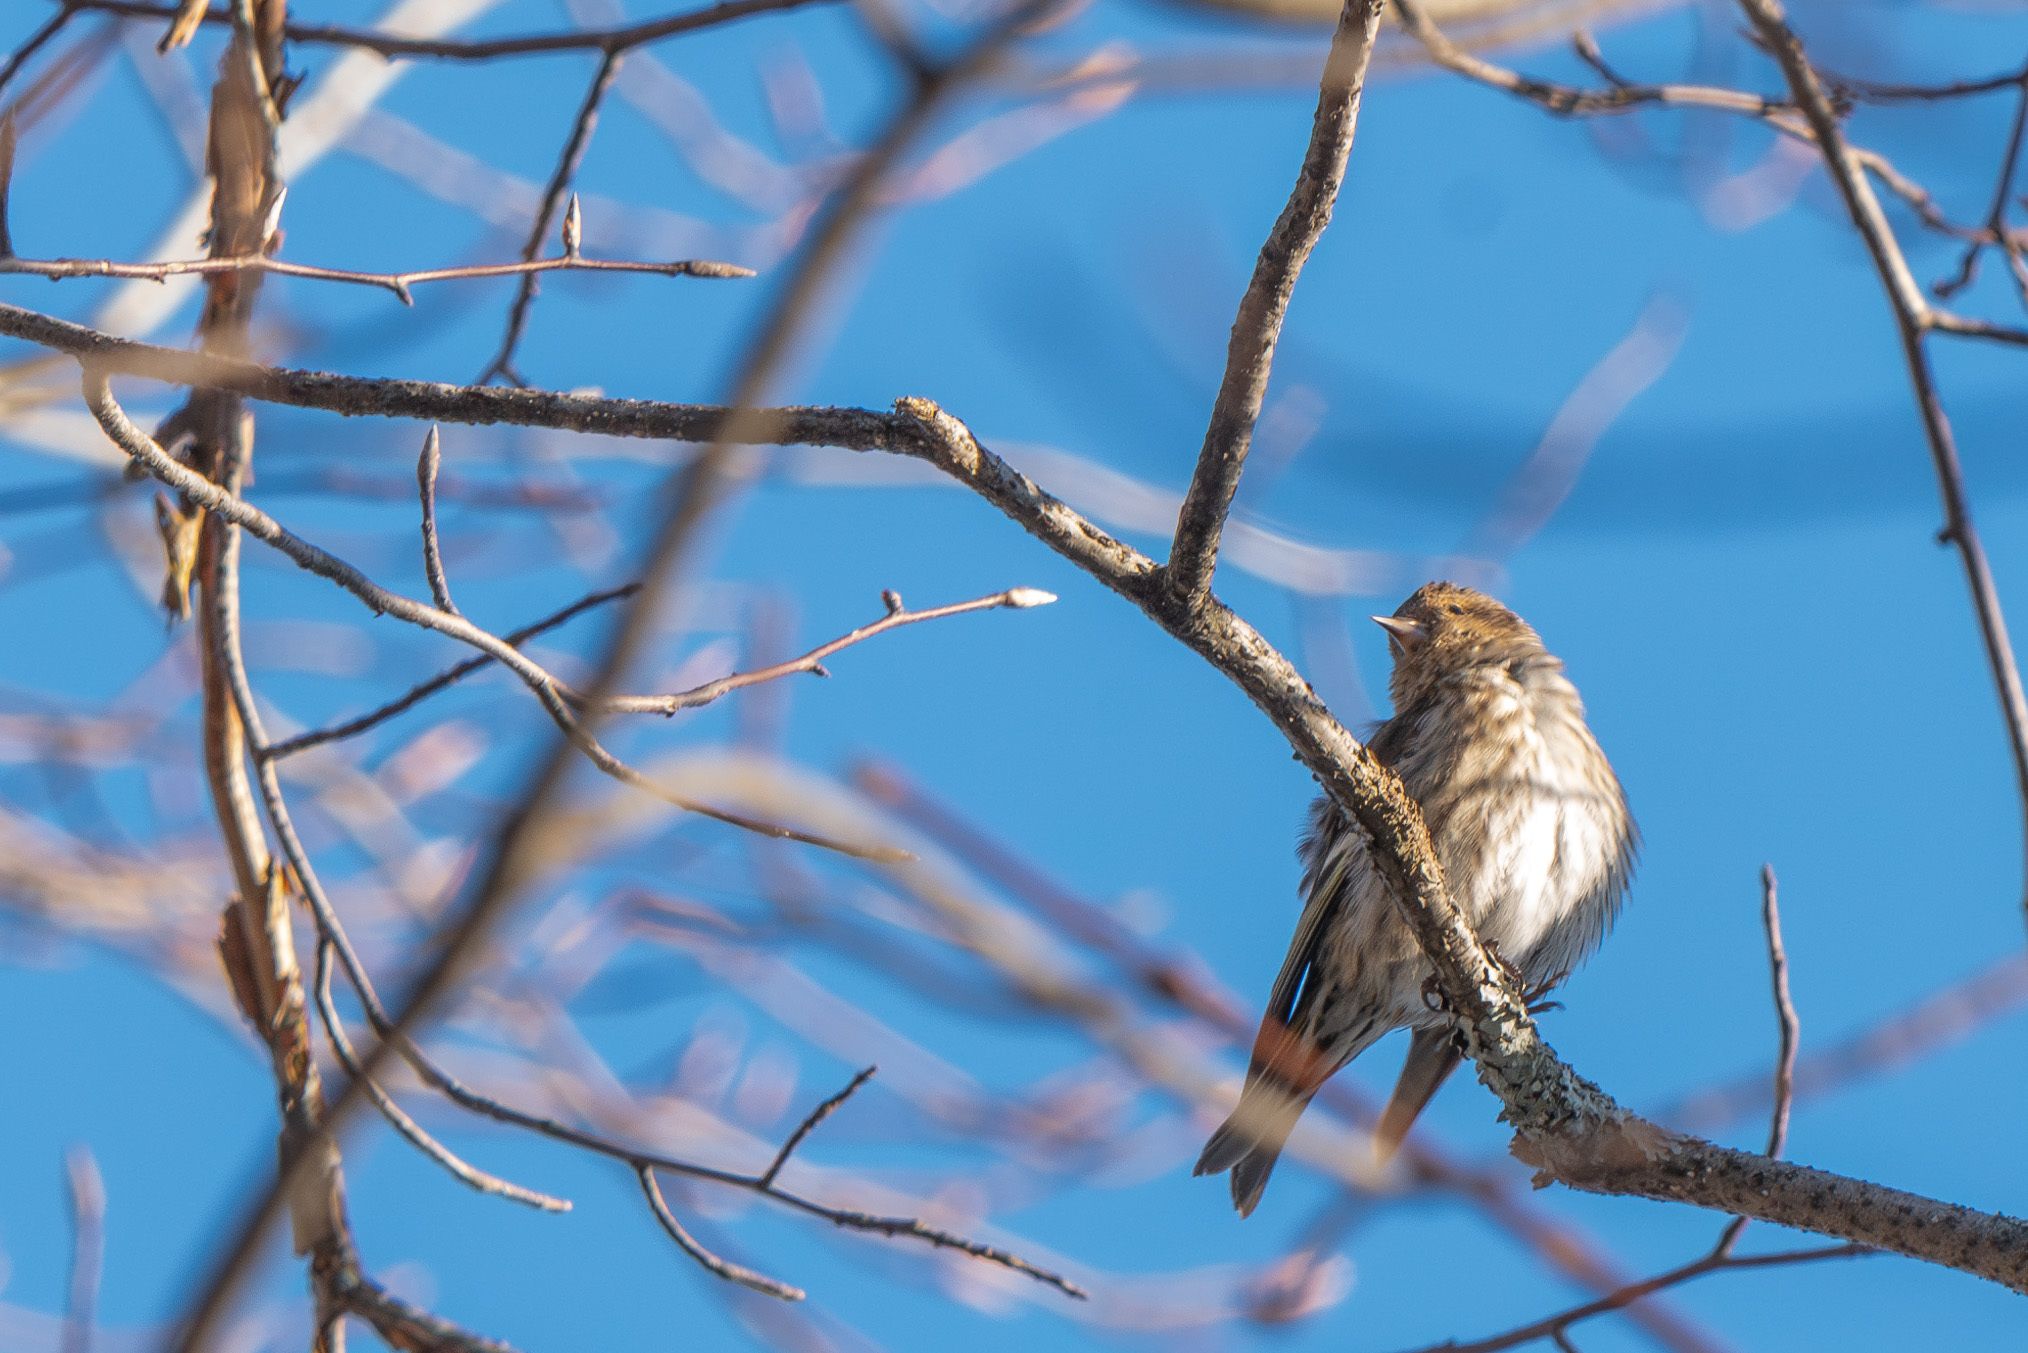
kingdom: Animalia
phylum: Chordata
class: Aves
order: Passeriformes
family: Fringillidae
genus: Spinus
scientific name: Spinus pinus
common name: Pine siskin
